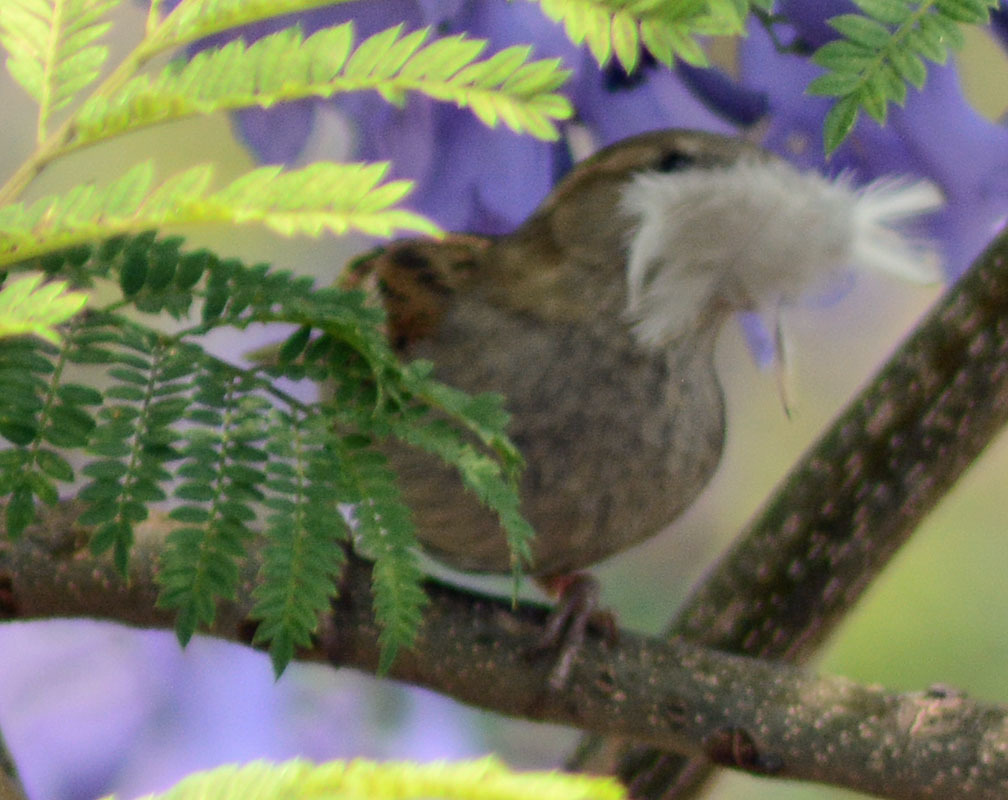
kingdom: Animalia
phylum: Chordata
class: Aves
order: Passeriformes
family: Passeridae
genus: Passer
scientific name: Passer domesticus
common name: House sparrow
